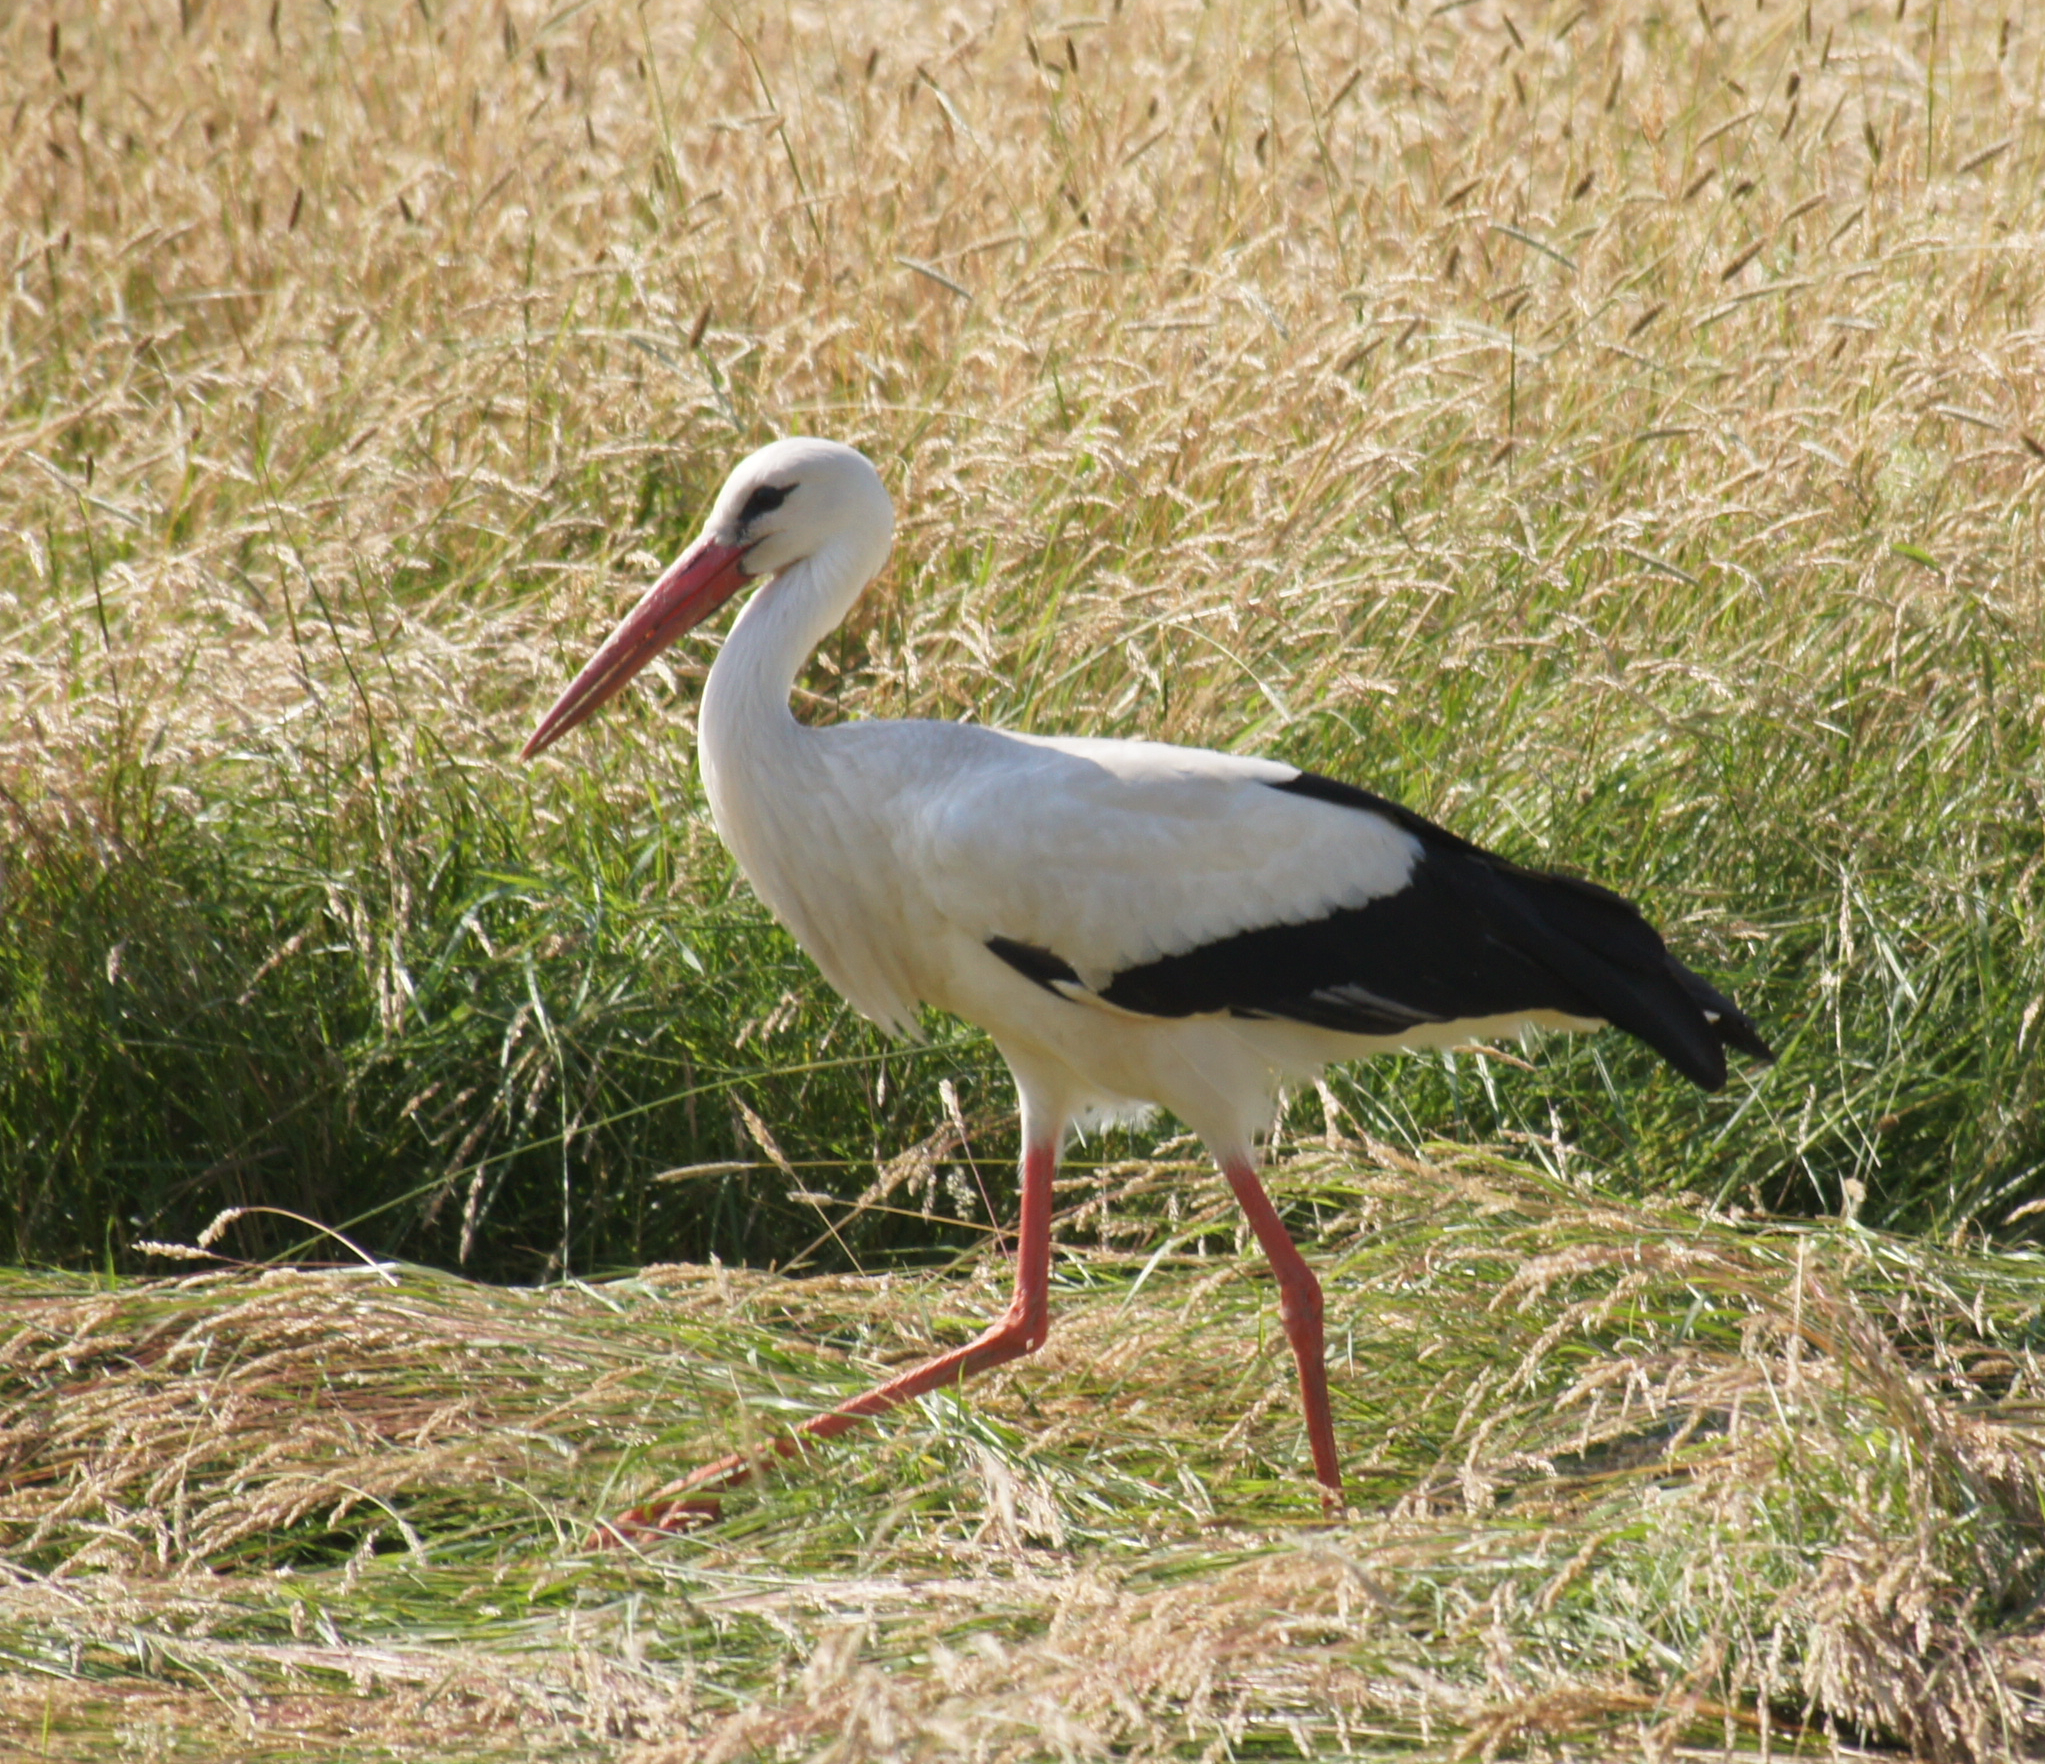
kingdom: Animalia
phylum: Chordata
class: Aves
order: Ciconiiformes
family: Ciconiidae
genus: Ciconia
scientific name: Ciconia ciconia
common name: White stork
